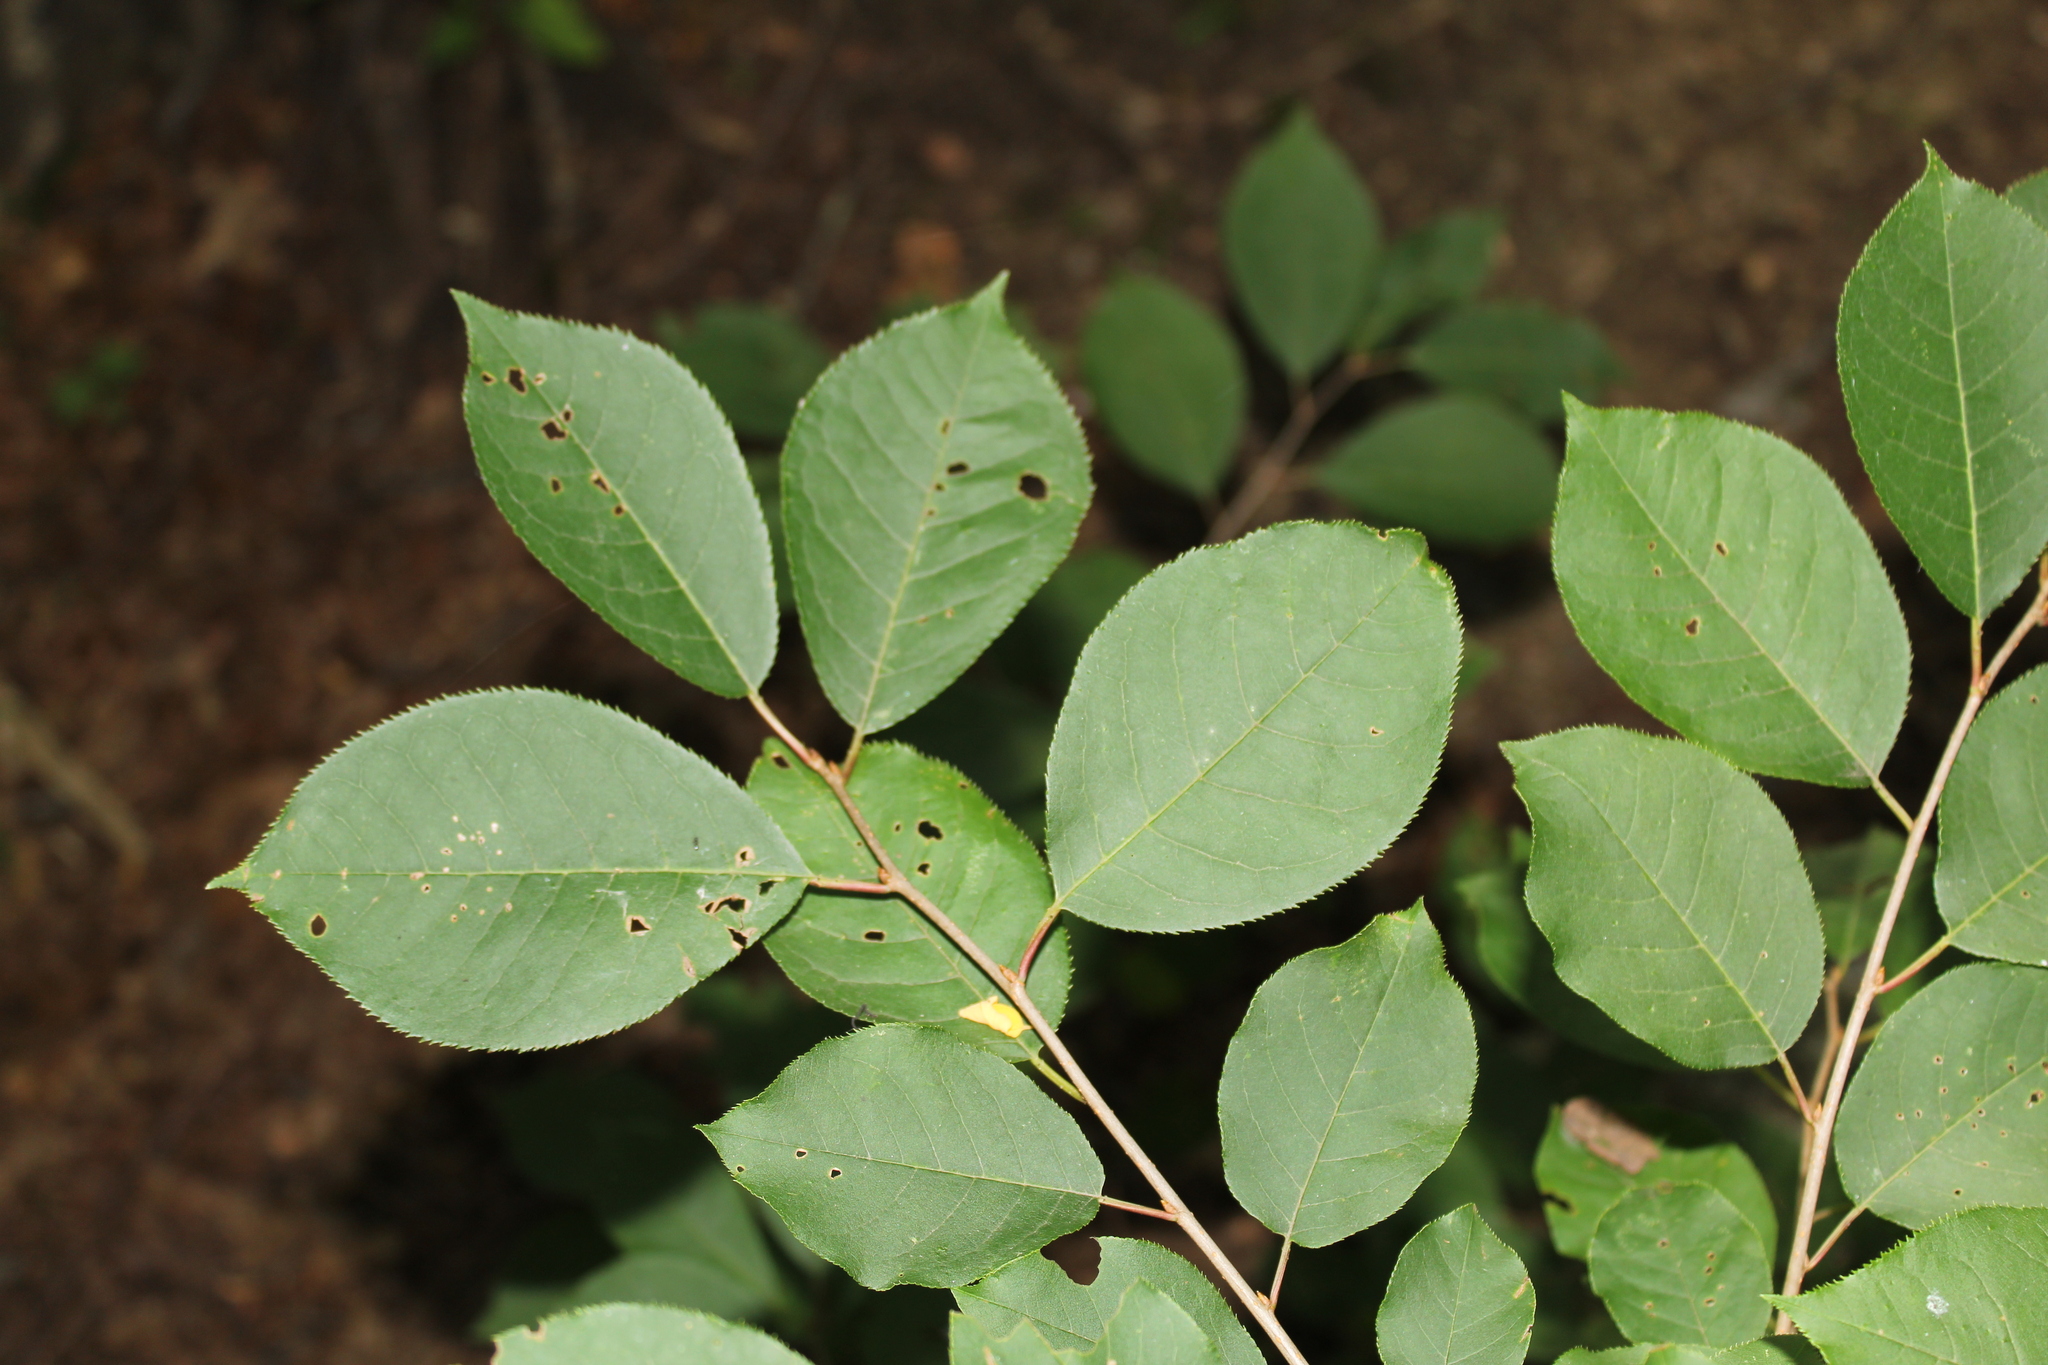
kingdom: Plantae
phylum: Tracheophyta
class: Magnoliopsida
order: Rosales
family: Rosaceae
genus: Prunus
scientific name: Prunus virginiana
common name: Chokecherry
